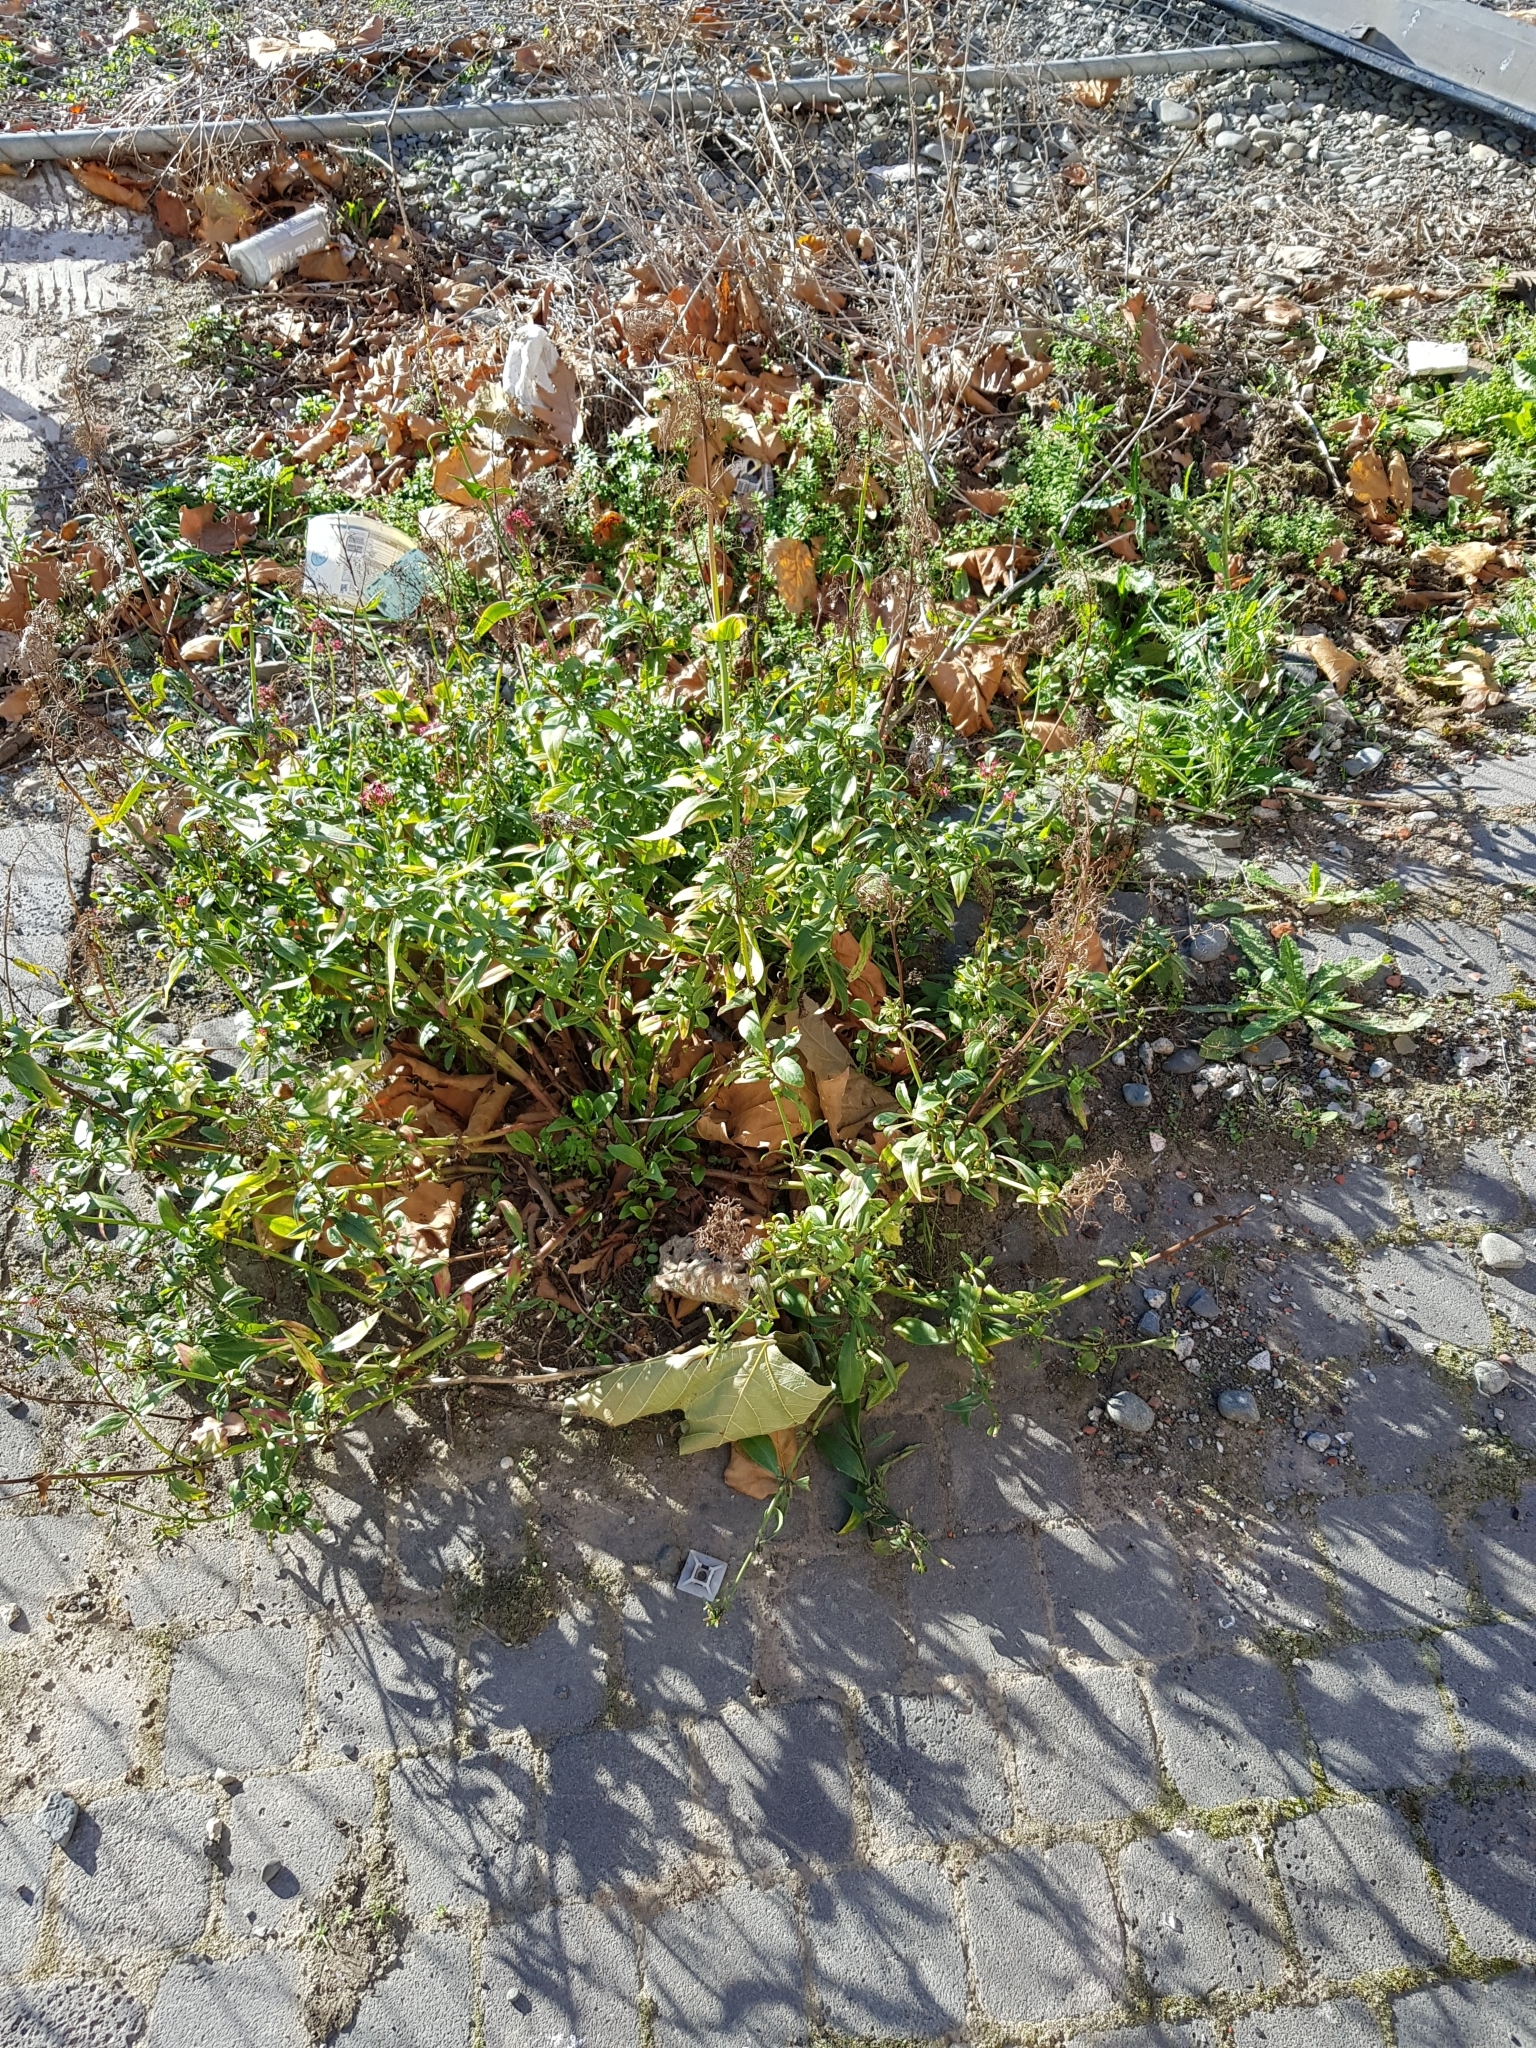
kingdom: Plantae
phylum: Tracheophyta
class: Magnoliopsida
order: Dipsacales
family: Caprifoliaceae
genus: Centranthus
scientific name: Centranthus ruber
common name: Red valerian
